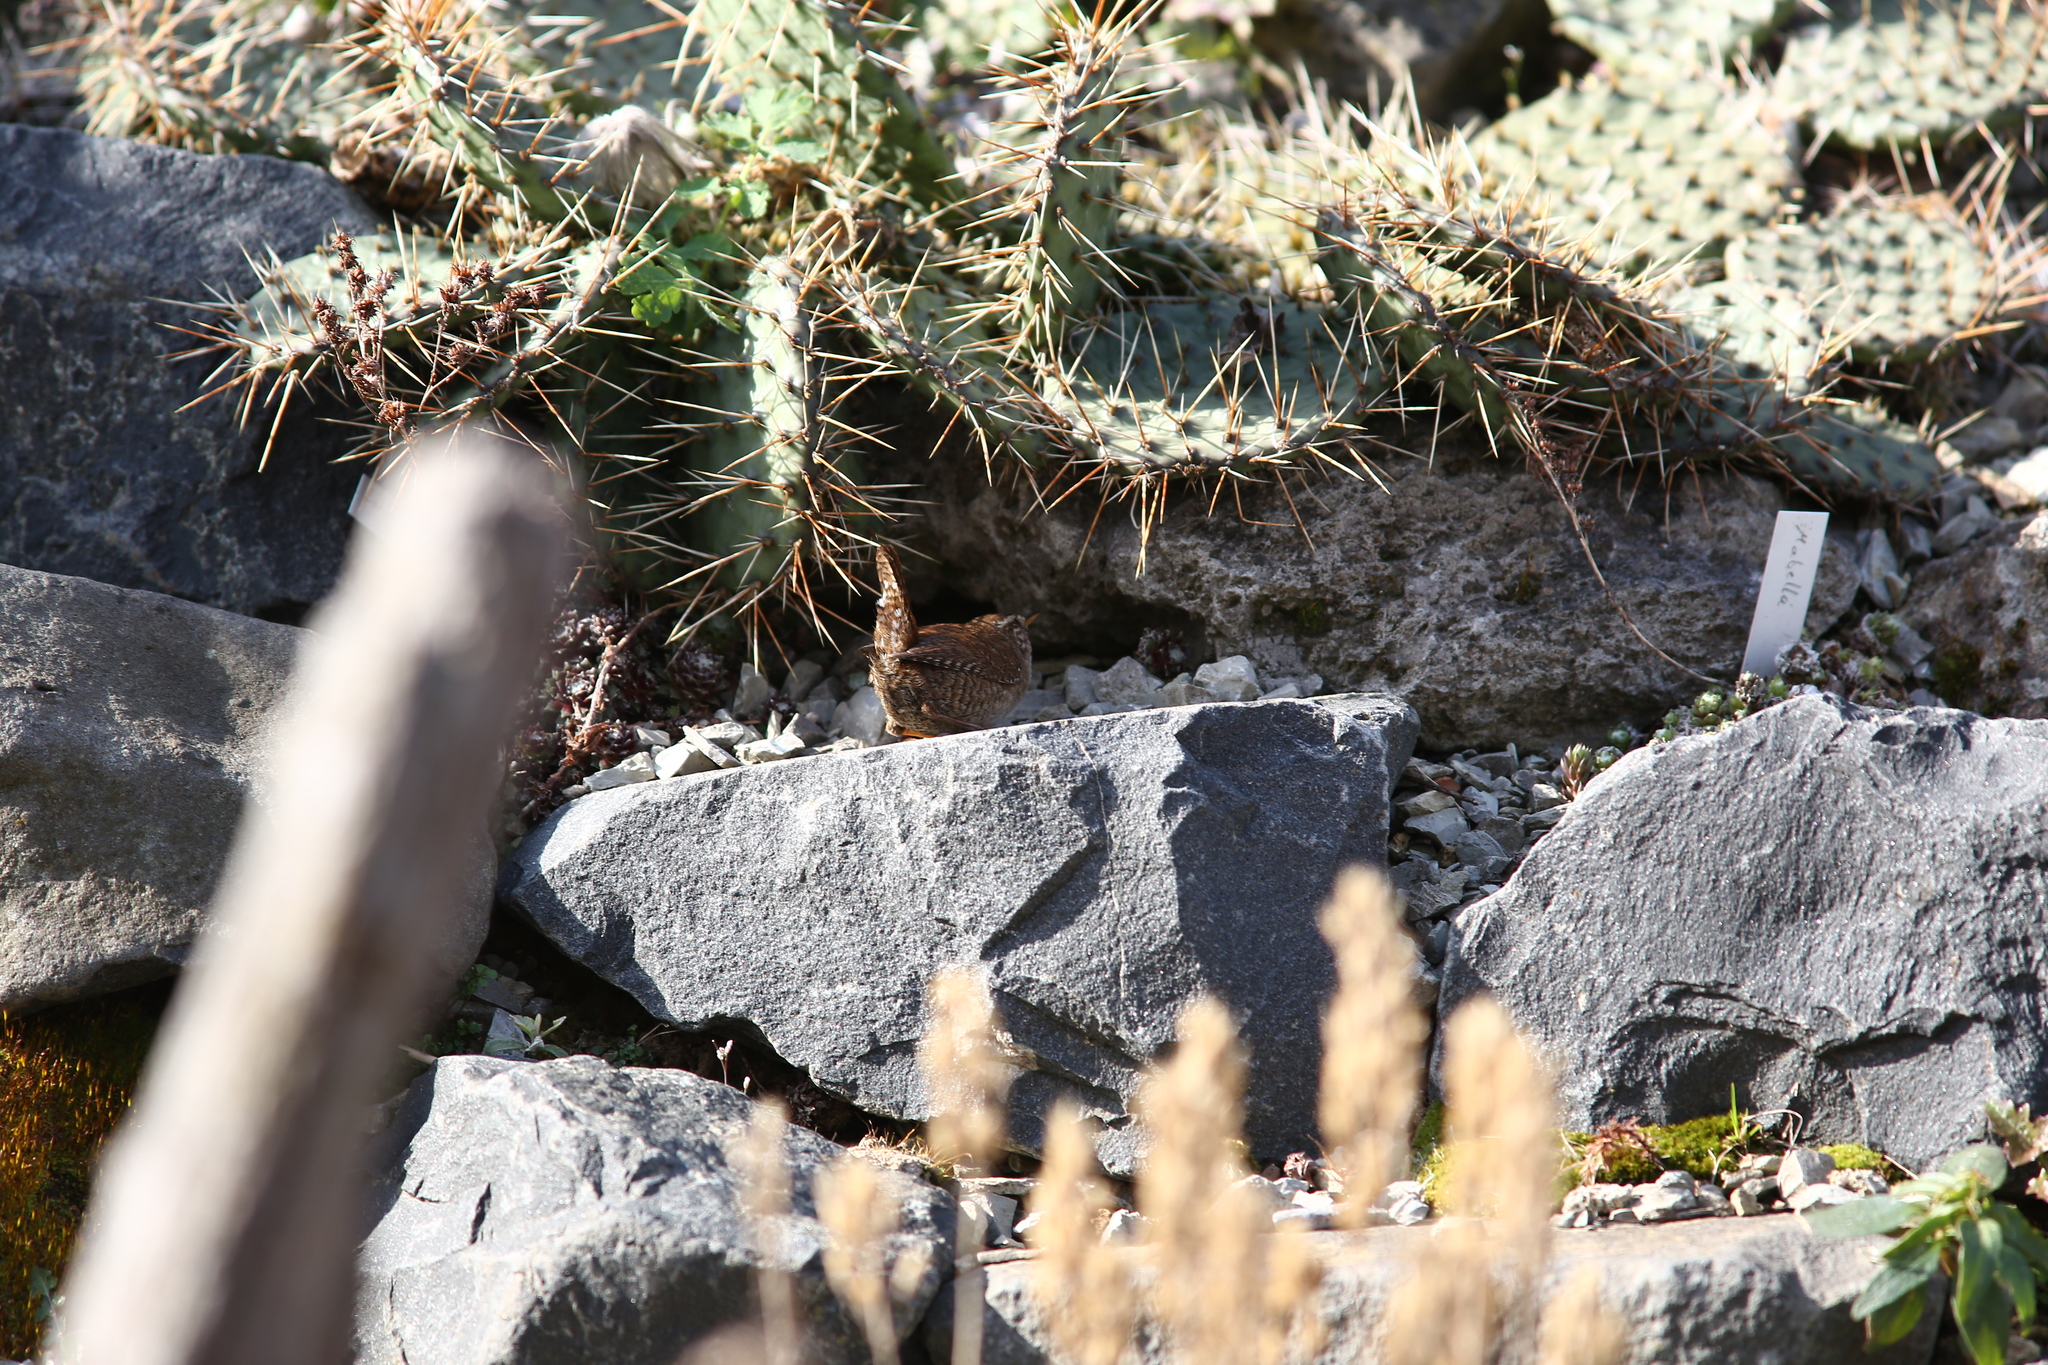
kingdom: Animalia
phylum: Chordata
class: Aves
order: Passeriformes
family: Troglodytidae
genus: Troglodytes
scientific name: Troglodytes troglodytes
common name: Eurasian wren
